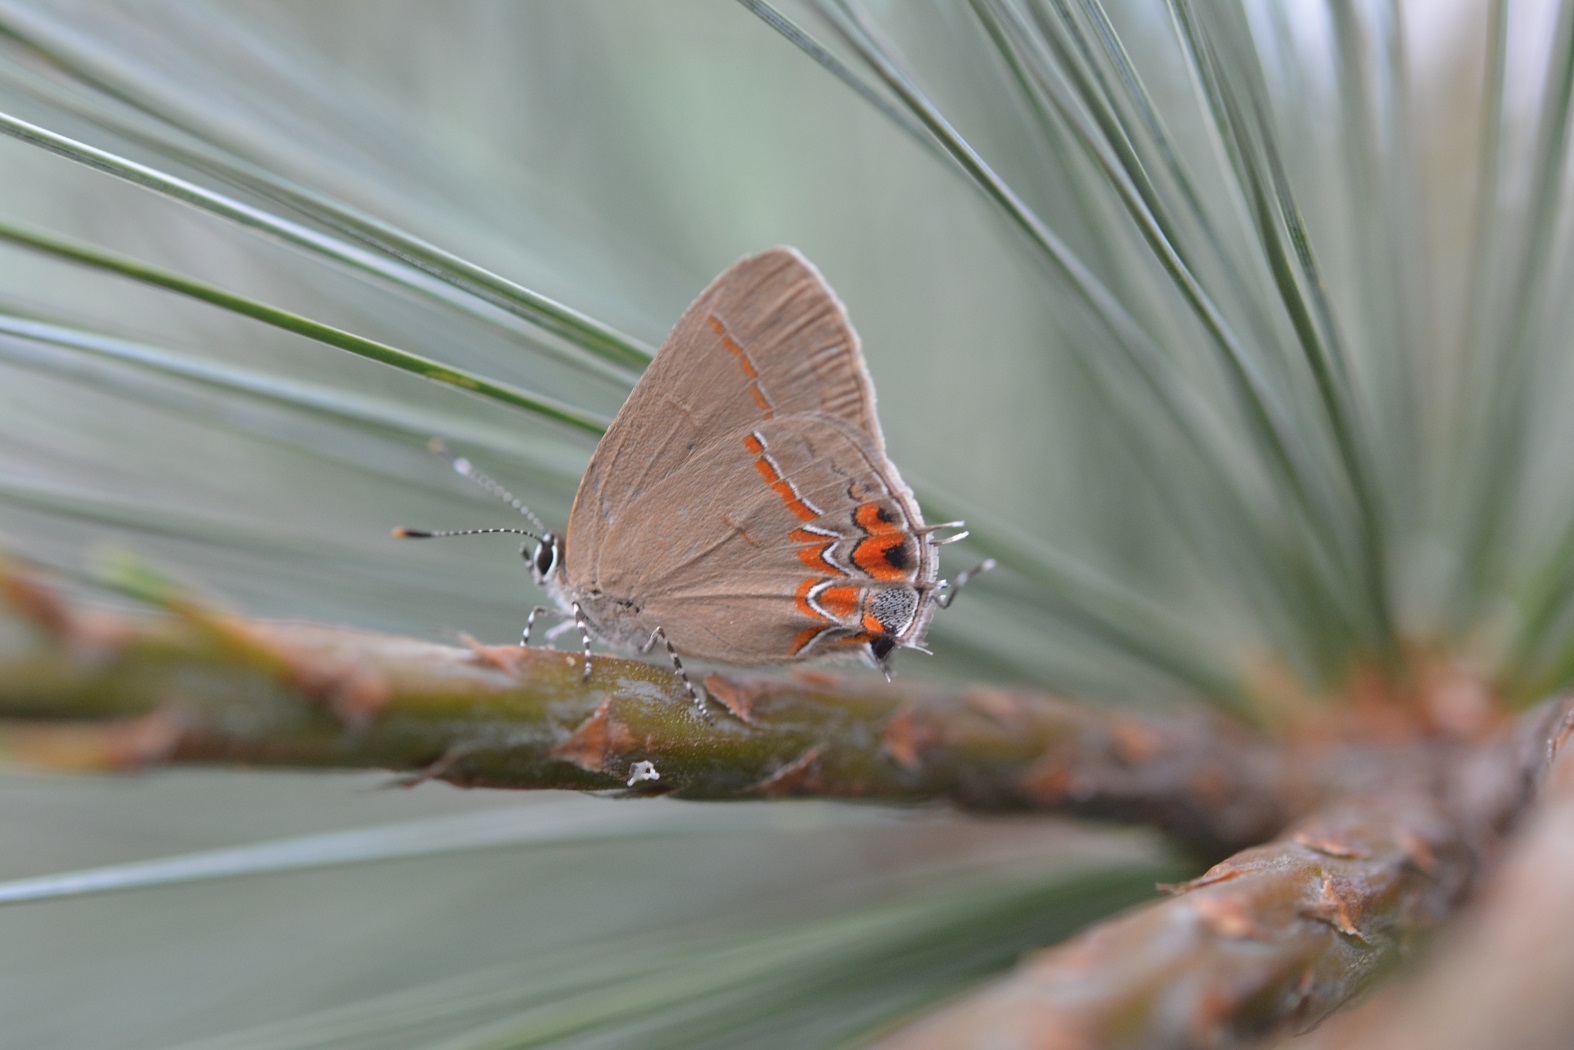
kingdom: Animalia
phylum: Arthropoda
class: Insecta
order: Lepidoptera
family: Lycaenidae
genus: Calycopis
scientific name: Calycopis isobeon
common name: Dusky-blue groundstreak
